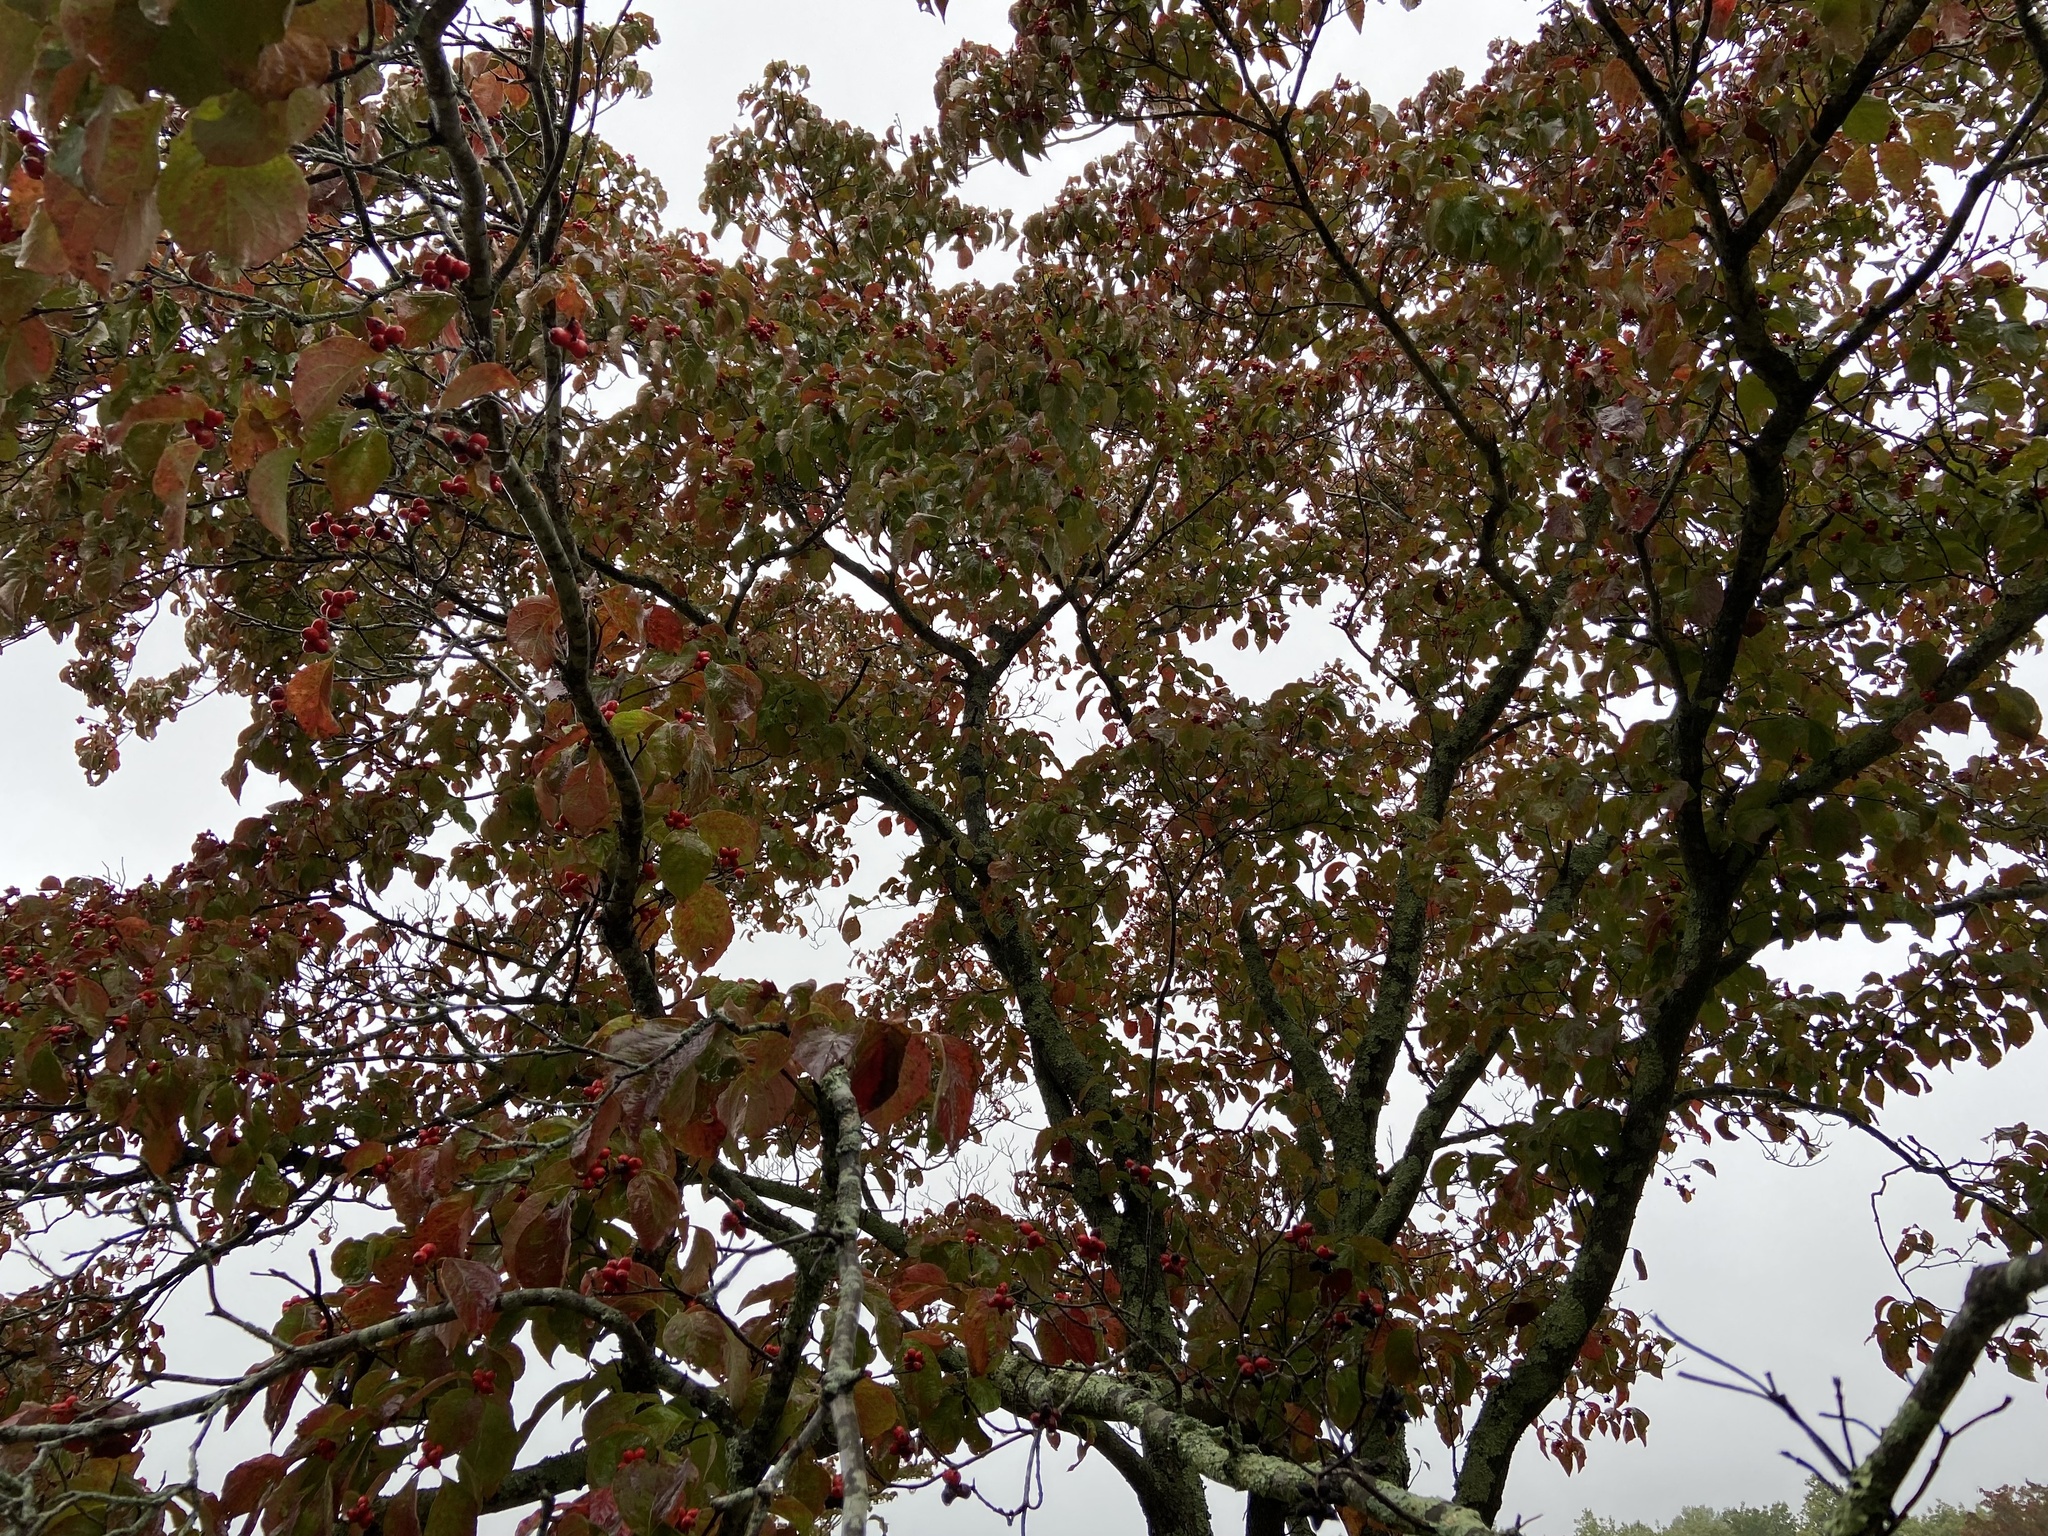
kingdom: Plantae
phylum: Tracheophyta
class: Magnoliopsida
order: Cornales
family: Cornaceae
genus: Cornus
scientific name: Cornus florida
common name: Flowering dogwood
